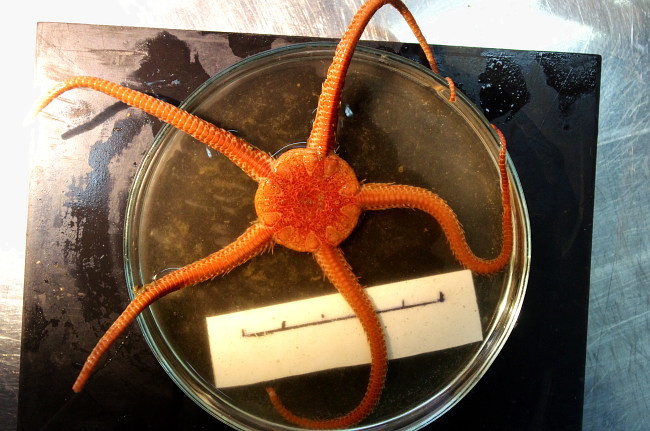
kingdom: Animalia
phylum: Echinodermata
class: Ophiuroidea
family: Ophiopyrgidae
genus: Ophiopleura
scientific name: Ophiopleura borealis
